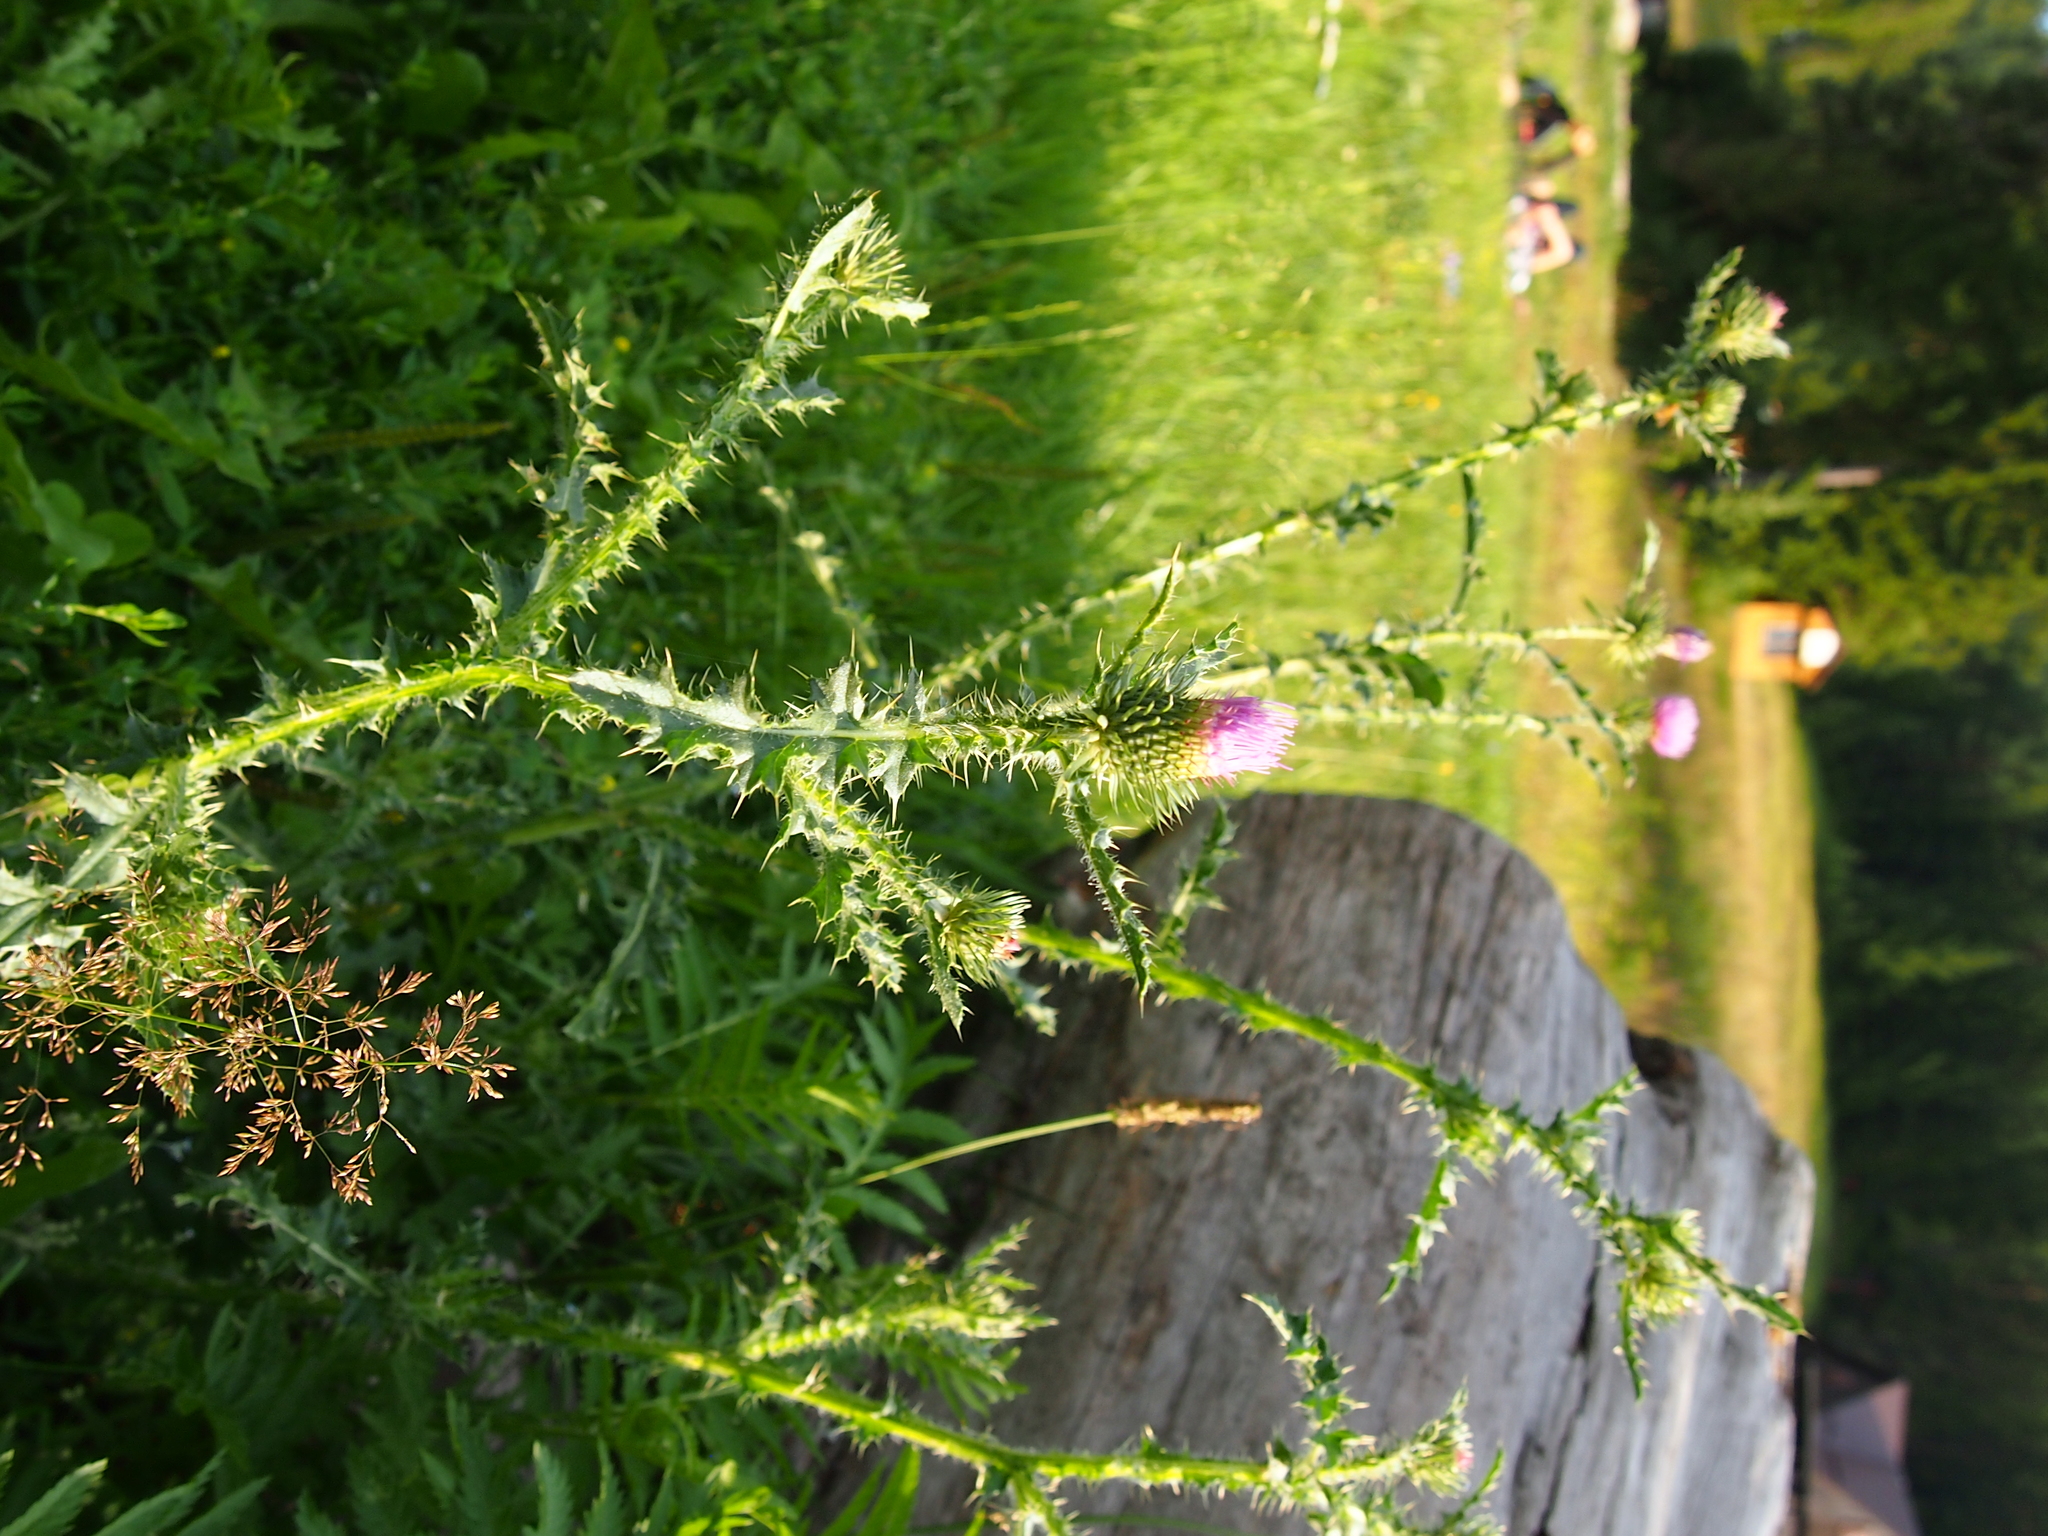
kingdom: Plantae
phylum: Tracheophyta
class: Magnoliopsida
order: Asterales
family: Asteraceae
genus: Carduus
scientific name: Carduus acanthoides
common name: Plumeless thistle
